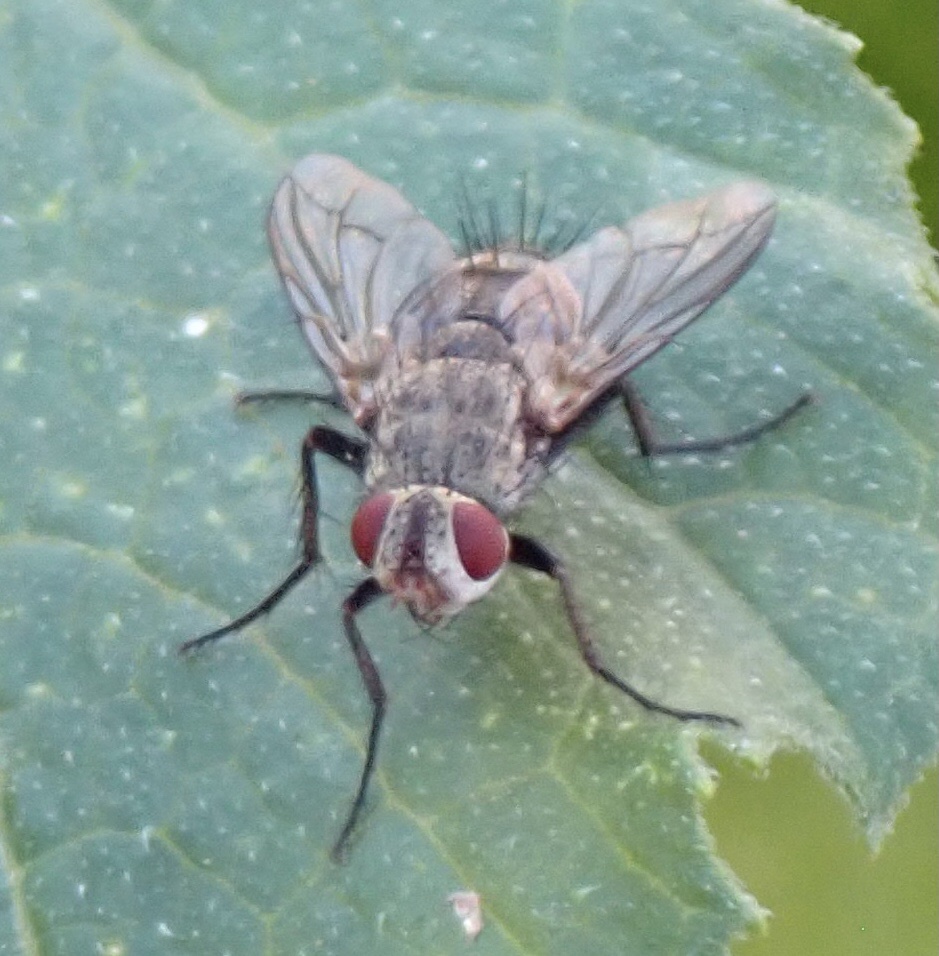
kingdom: Animalia
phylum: Arthropoda
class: Insecta
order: Diptera
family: Tachinidae
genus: Microphthalma
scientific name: Microphthalma europaea
